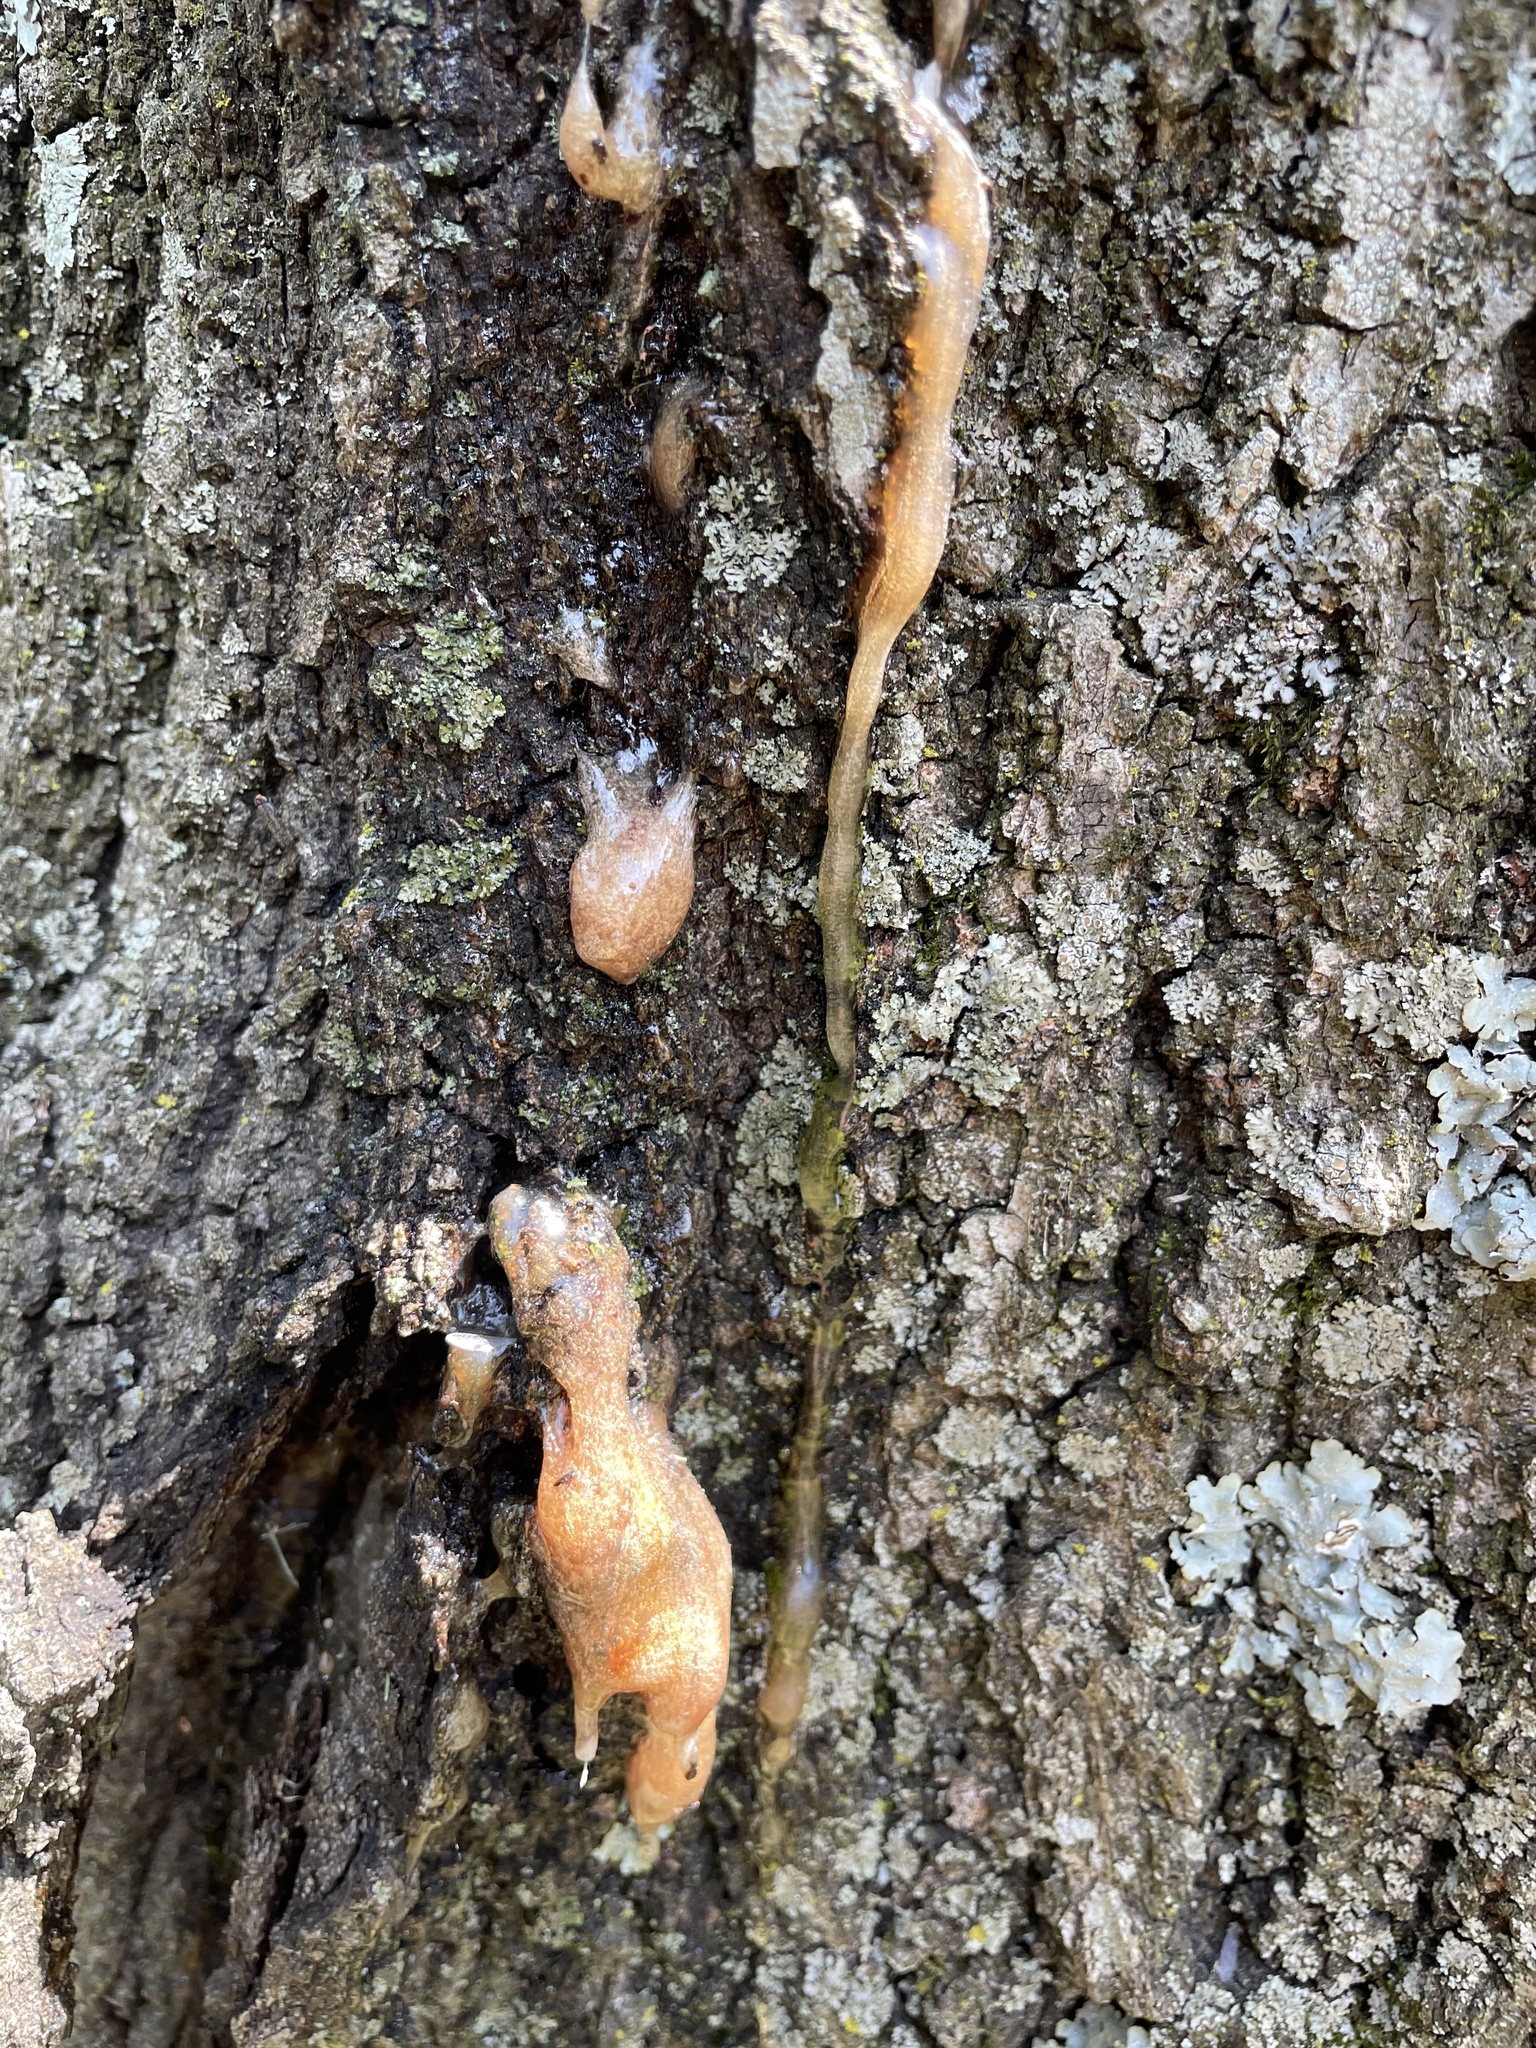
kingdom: Fungi
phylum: Ascomycota
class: Sordariomycetes
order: Hypocreales
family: Nectriaceae
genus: Fusicolla
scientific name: Fusicolla merismoides
